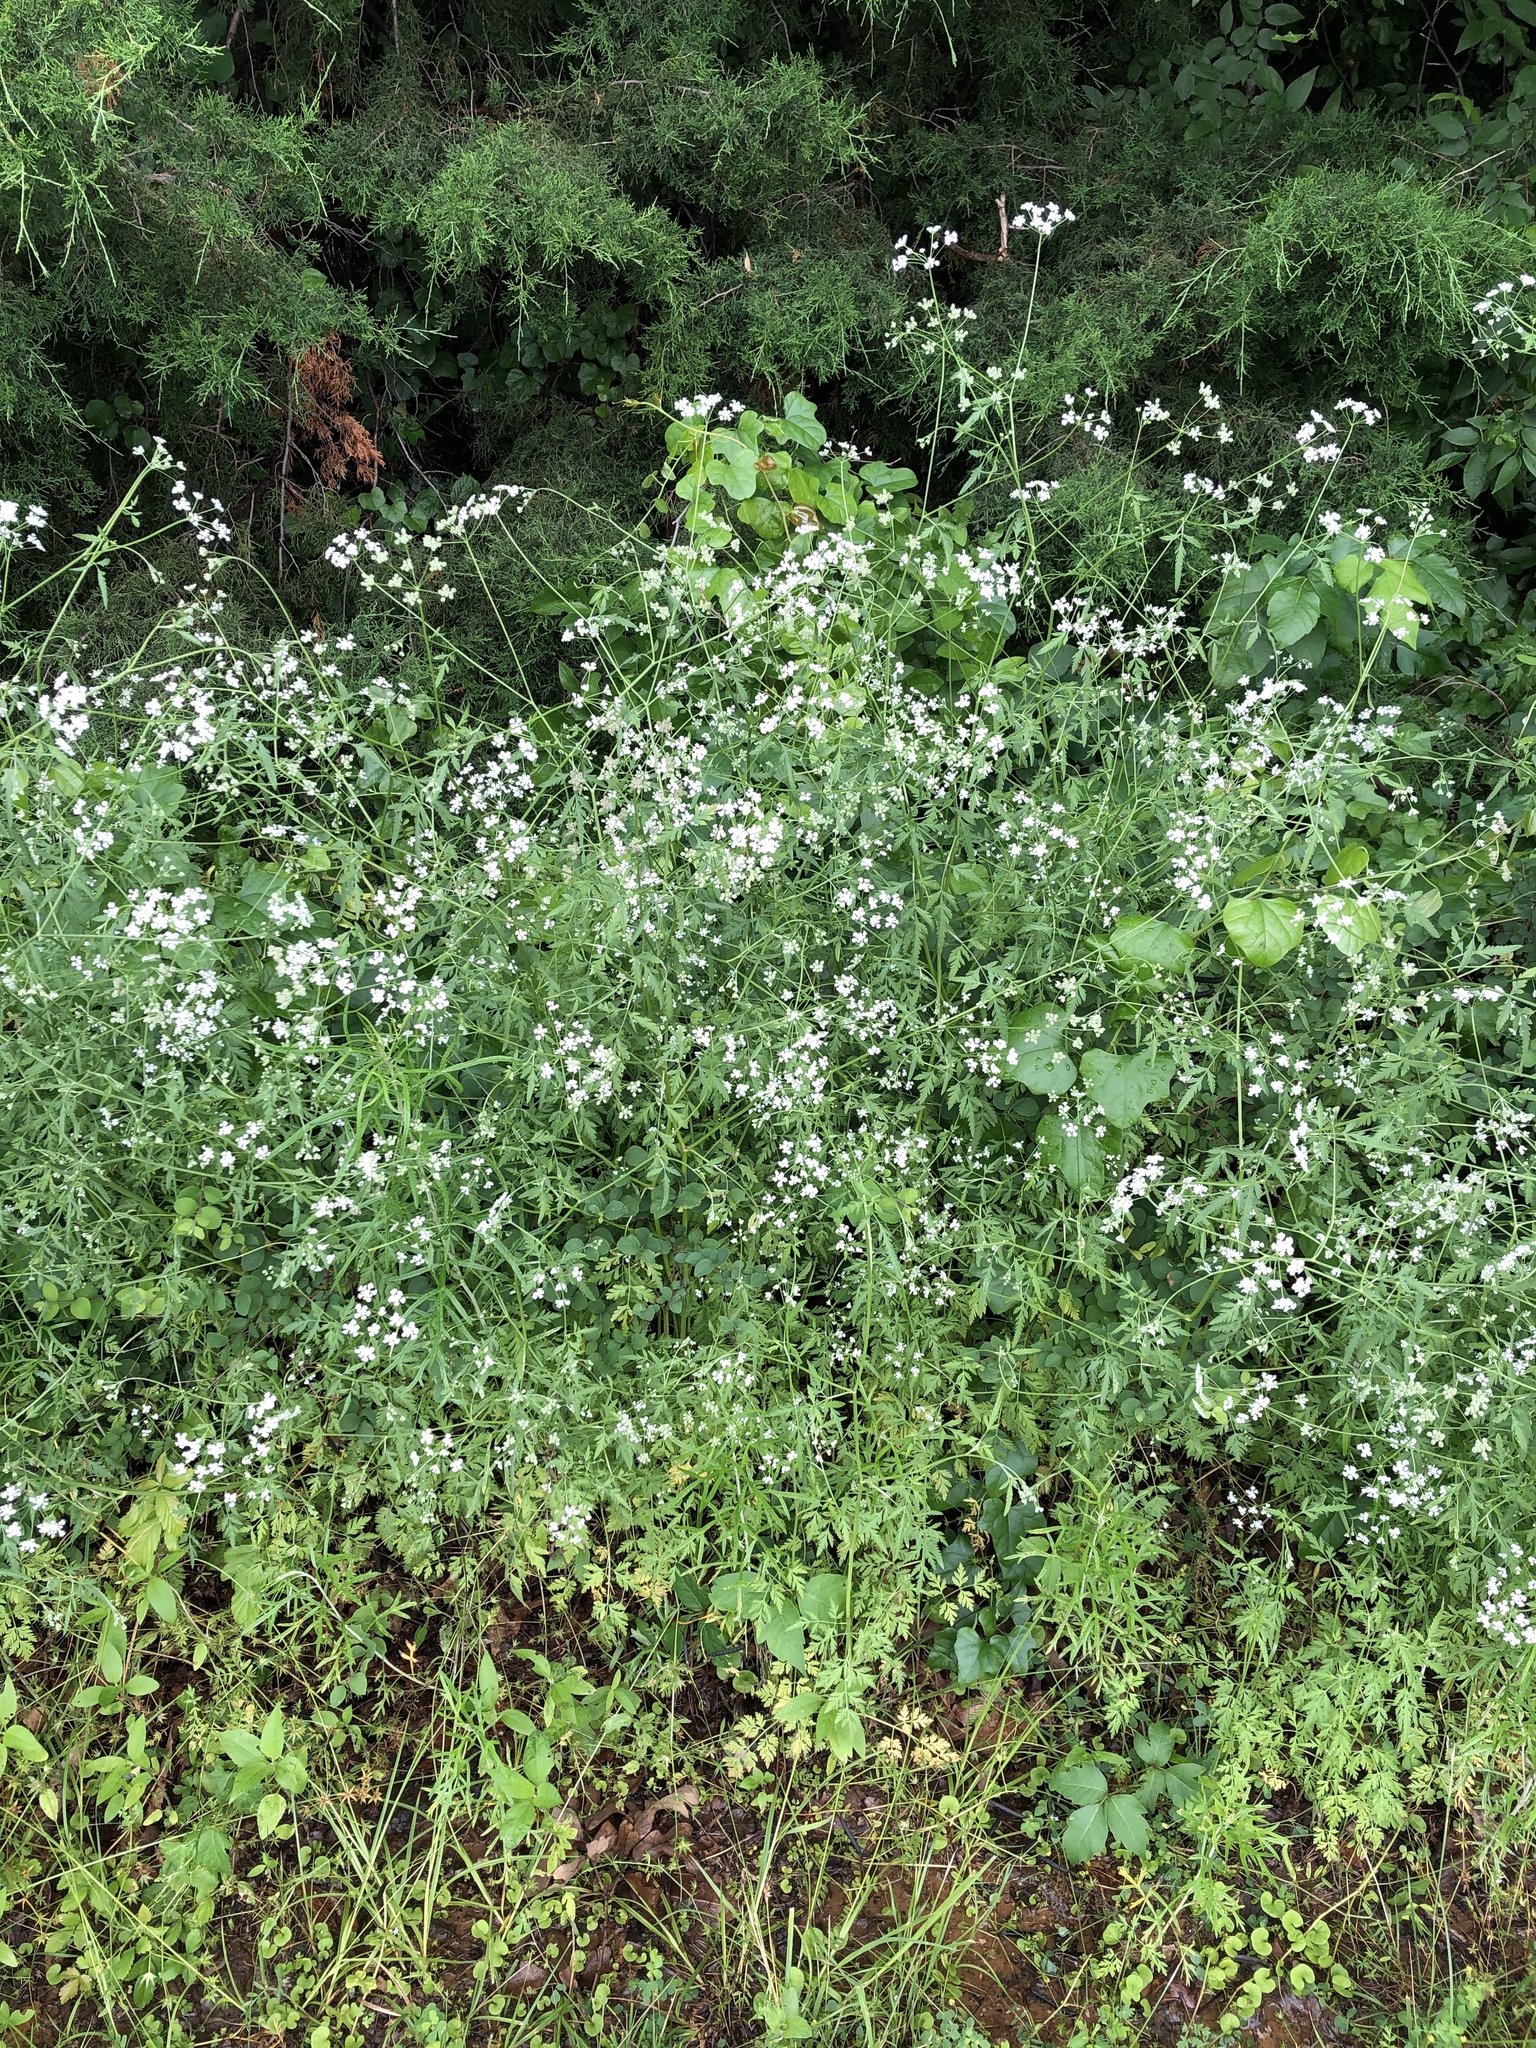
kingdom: Plantae
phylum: Tracheophyta
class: Magnoliopsida
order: Apiales
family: Apiaceae
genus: Torilis
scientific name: Torilis arvensis
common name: Spreading hedge-parsley
